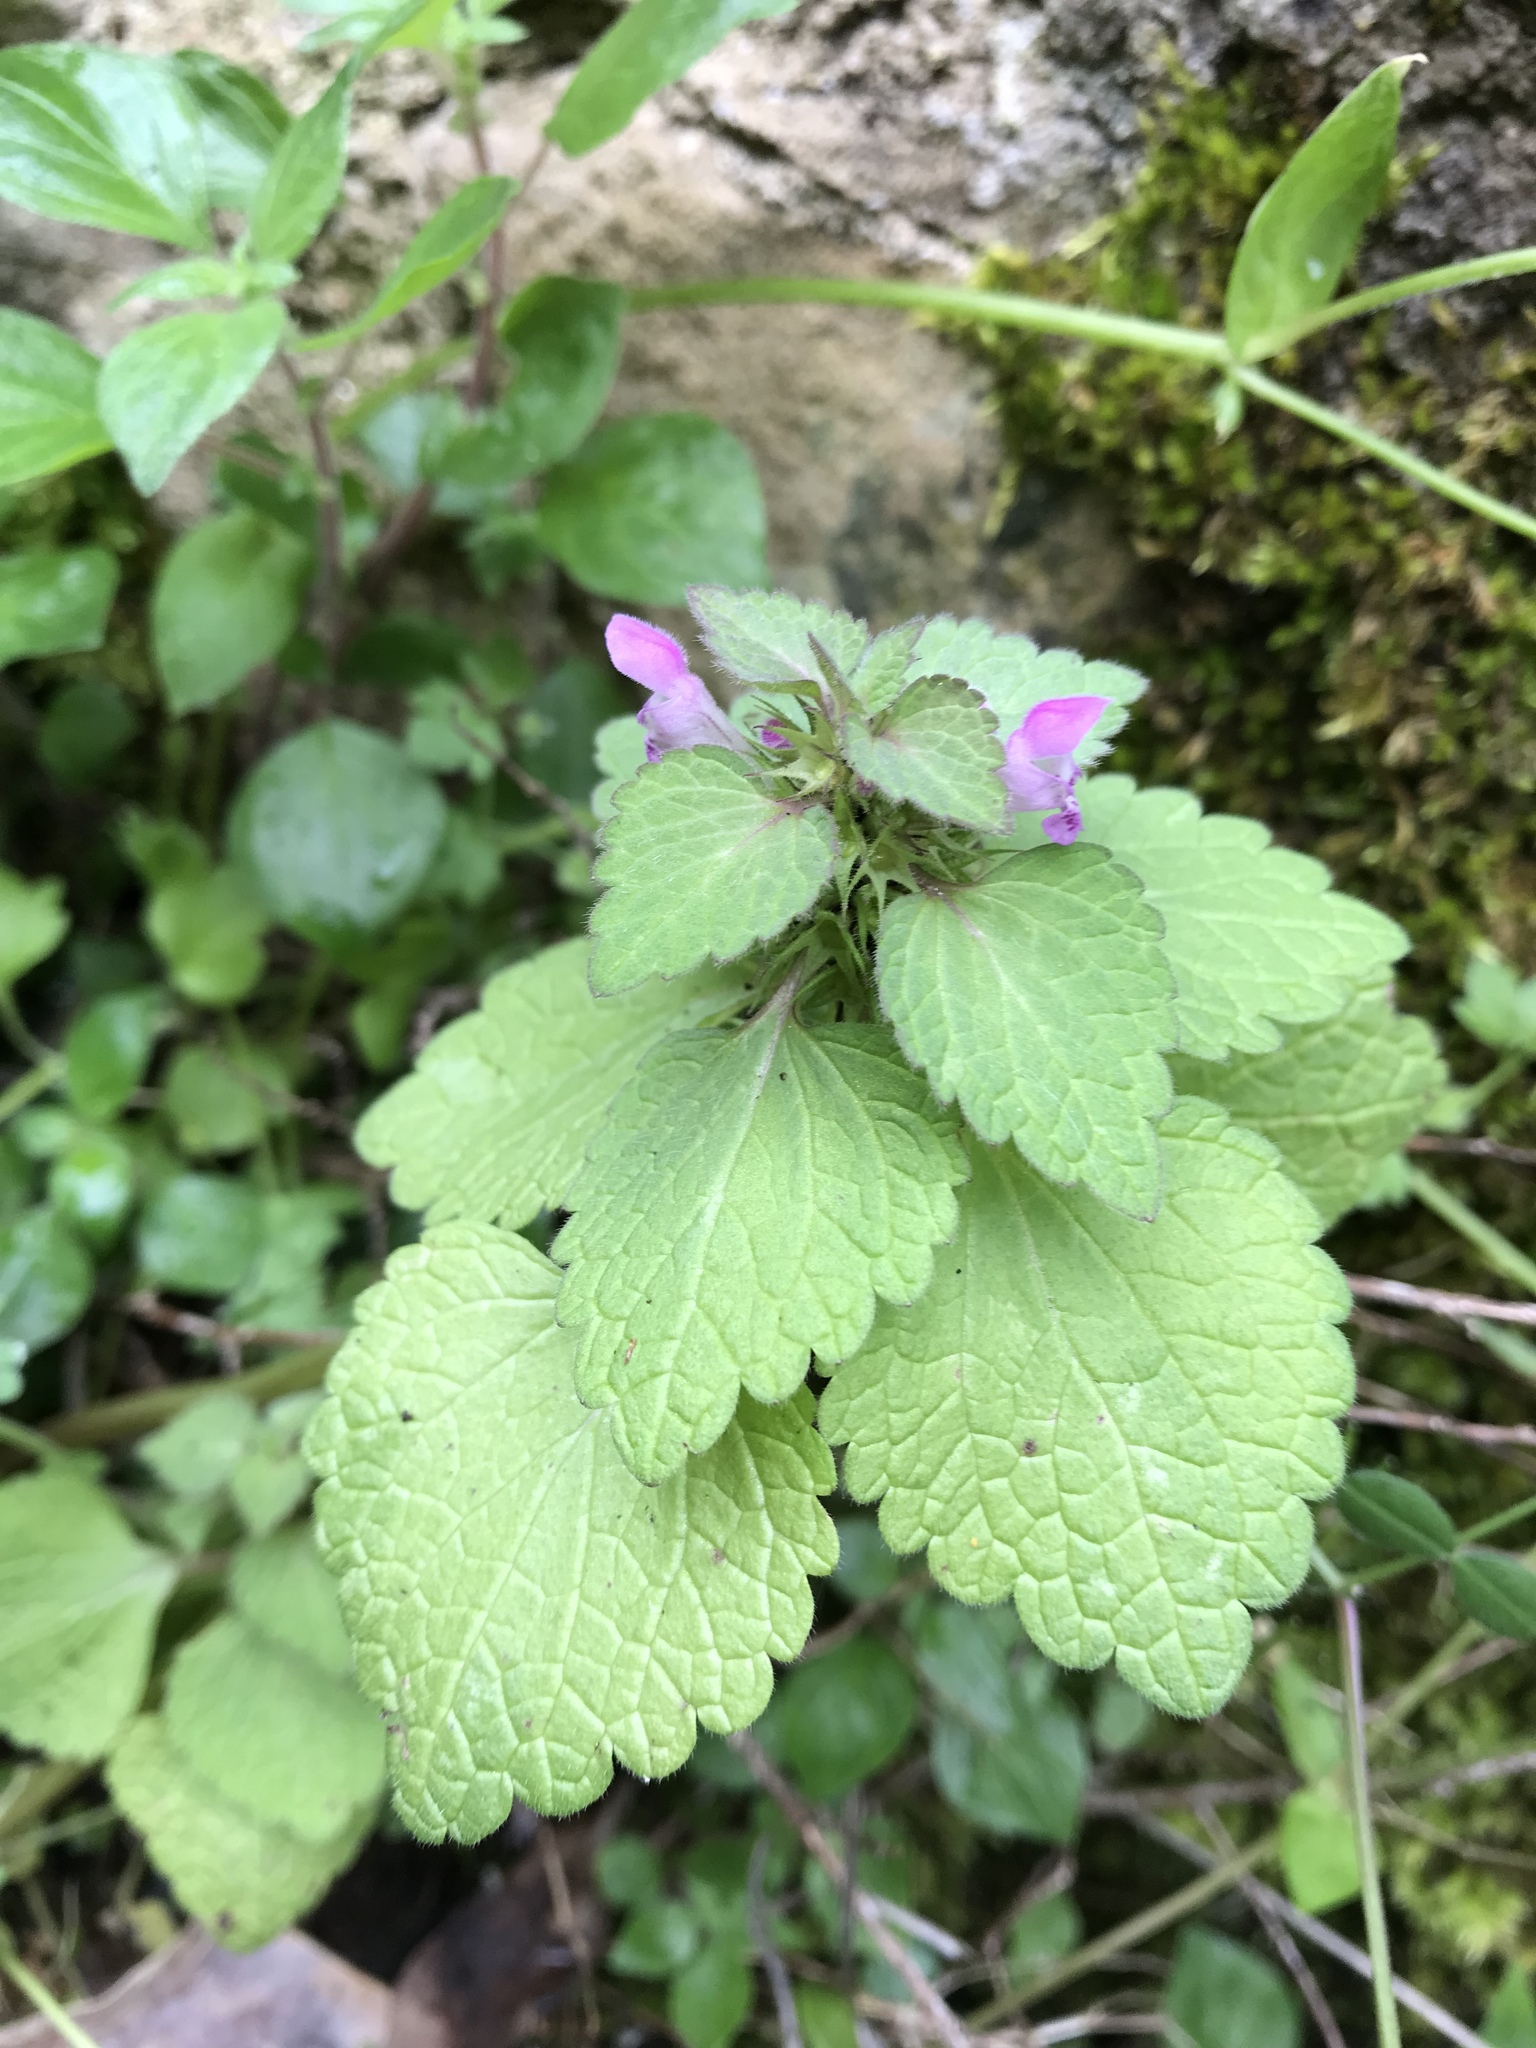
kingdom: Plantae
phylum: Tracheophyta
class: Magnoliopsida
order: Lamiales
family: Lamiaceae
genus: Lamium
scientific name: Lamium purpureum
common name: Red dead-nettle
